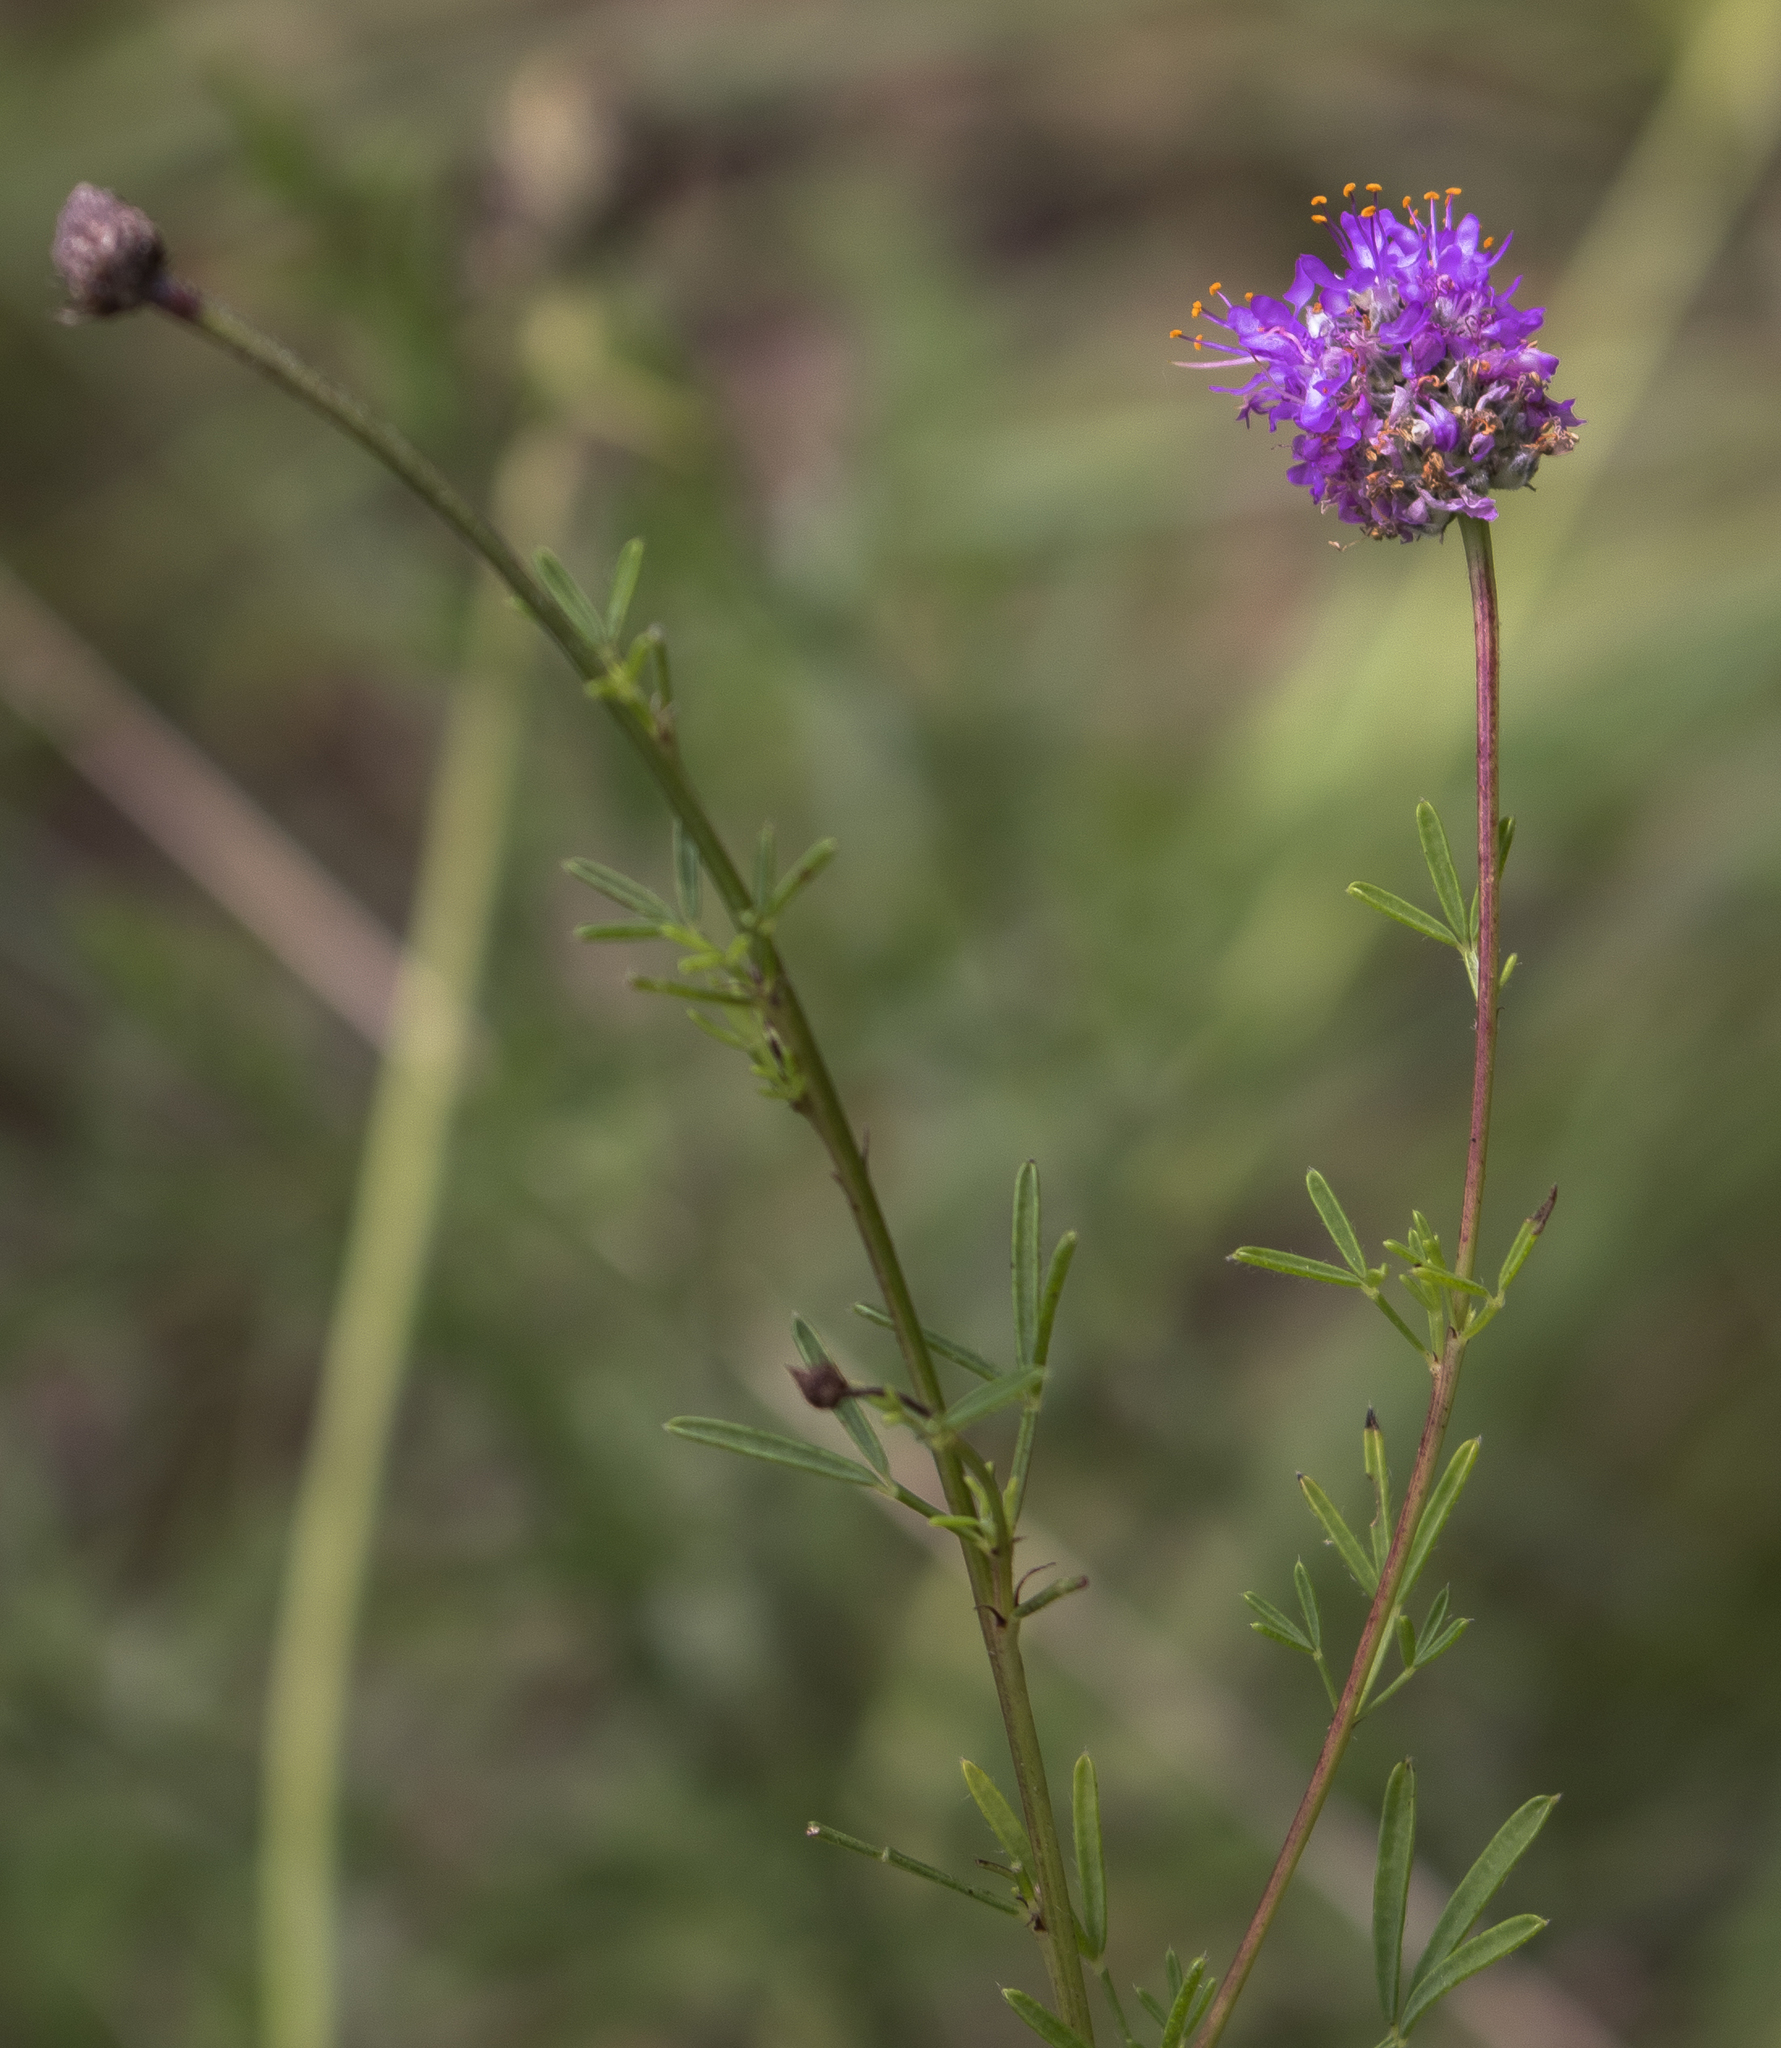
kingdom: Plantae
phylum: Tracheophyta
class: Magnoliopsida
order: Fabales
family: Fabaceae
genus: Dalea
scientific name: Dalea purpurea
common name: Purple prairie-clover
